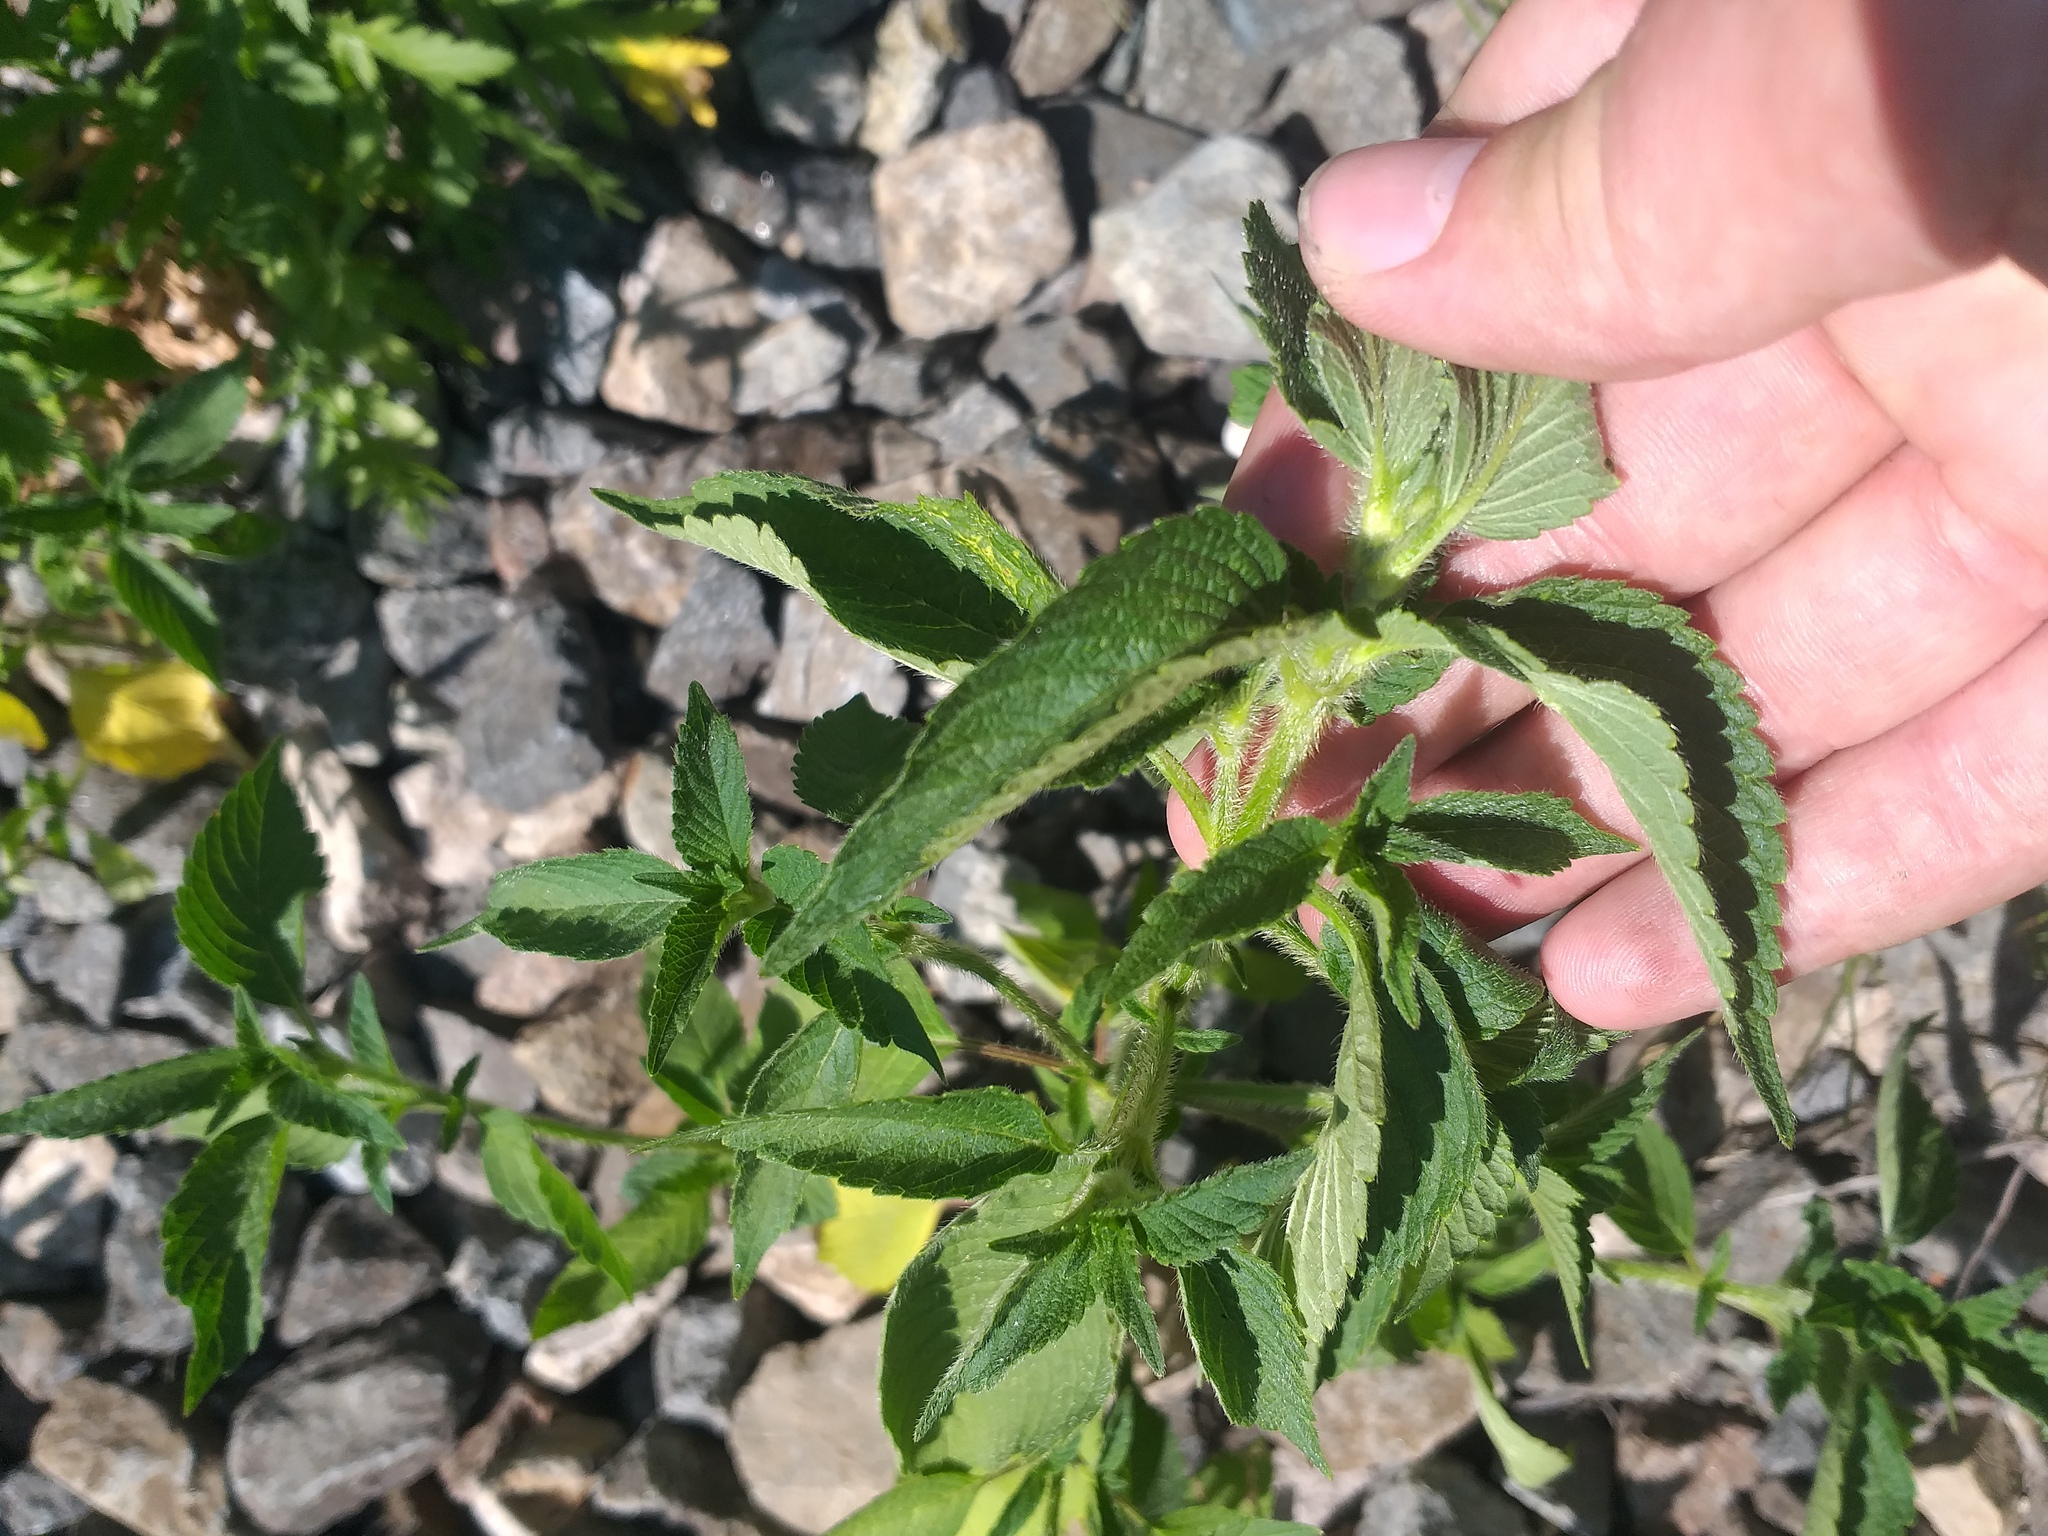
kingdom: Plantae
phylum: Tracheophyta
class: Magnoliopsida
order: Lamiales
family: Lamiaceae
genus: Galeopsis
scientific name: Galeopsis
